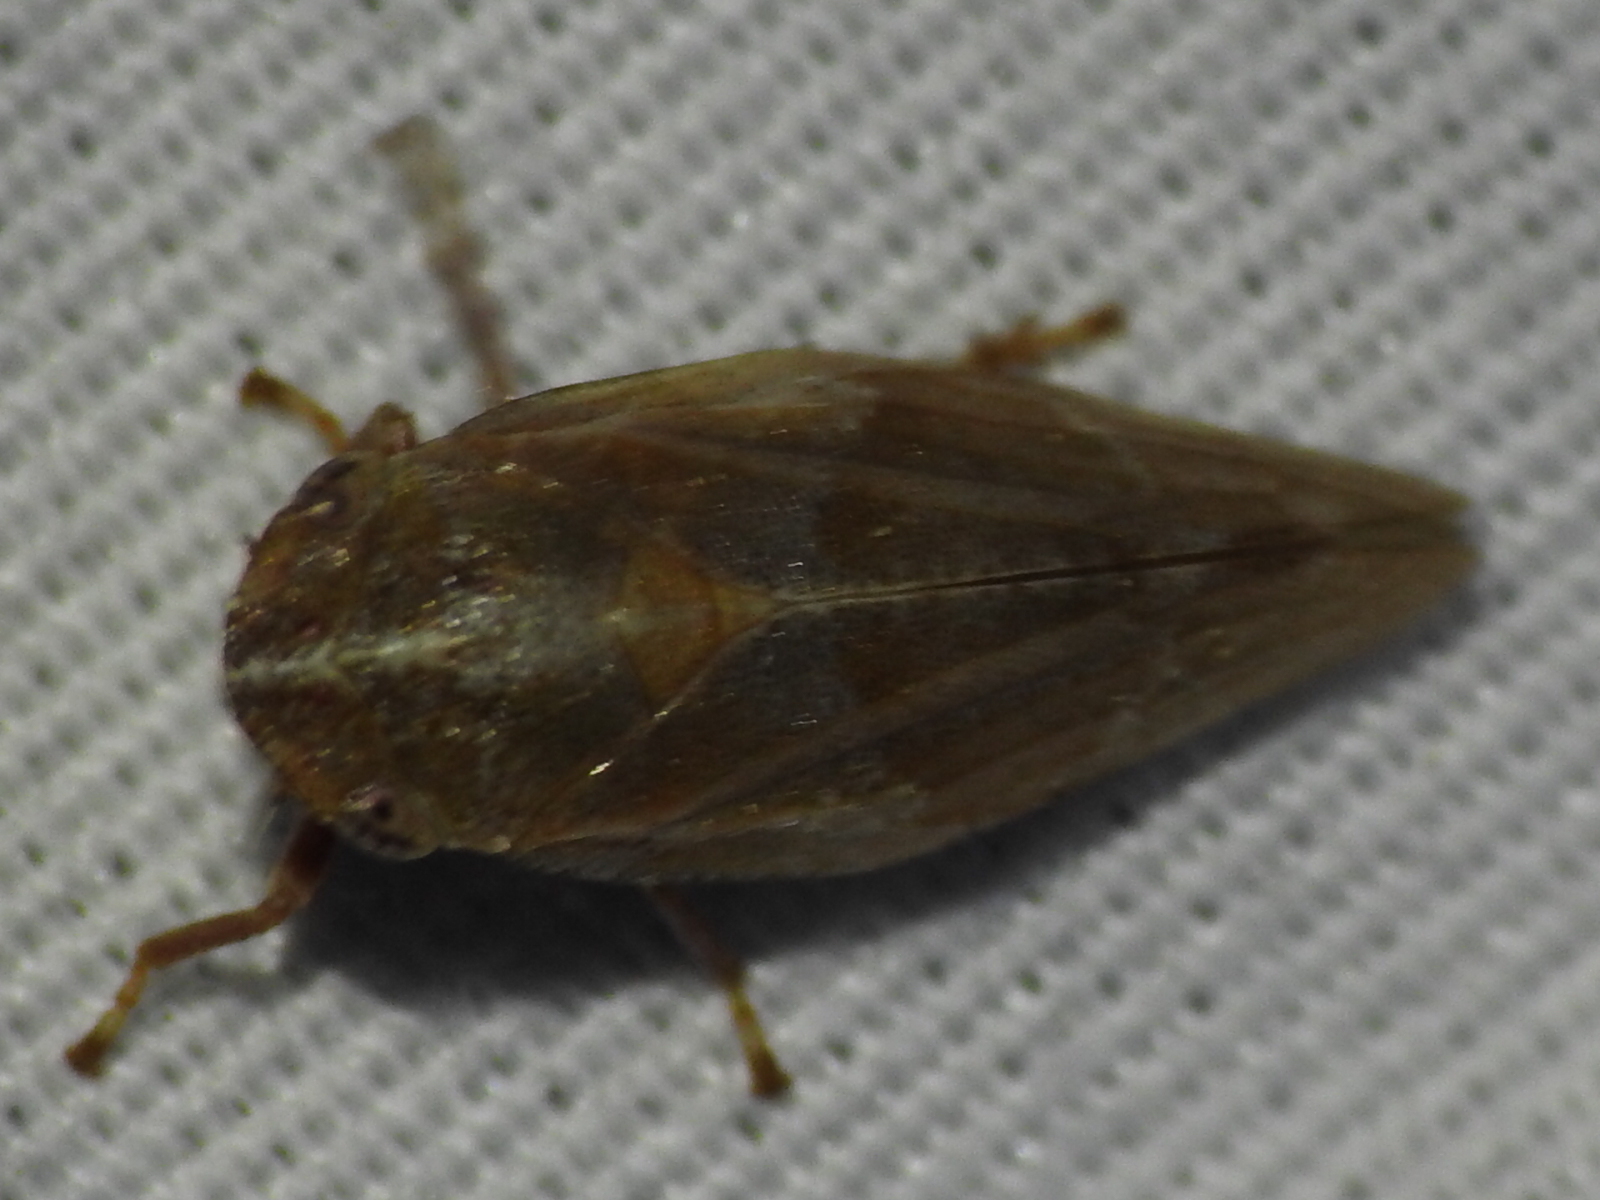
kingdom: Animalia
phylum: Arthropoda
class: Insecta
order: Hemiptera
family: Aphrophoridae
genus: Aphrophora
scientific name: Aphrophora saratogensis
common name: Saratoga spittlebug
